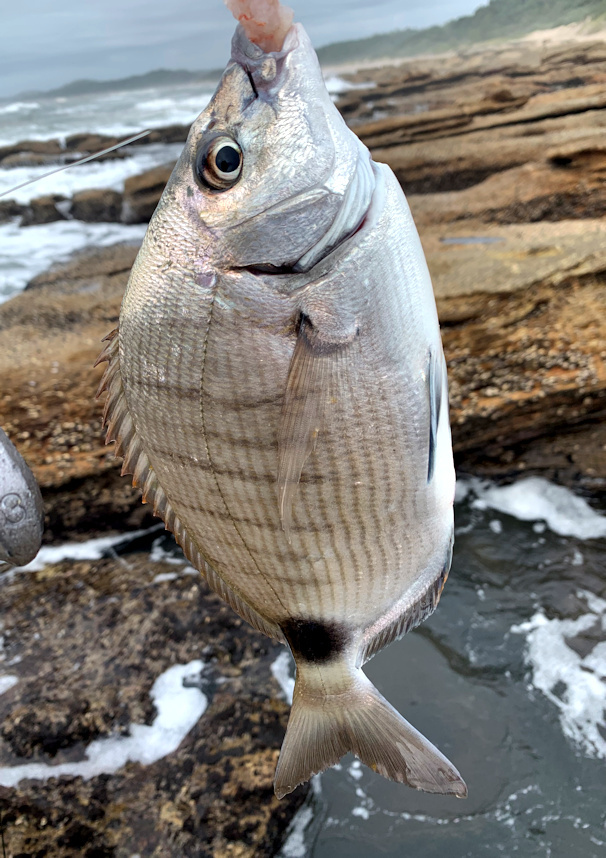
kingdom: Animalia
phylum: Chordata
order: Perciformes
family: Sparidae
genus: Diplodus
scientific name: Diplodus capensis
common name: Blacktail
